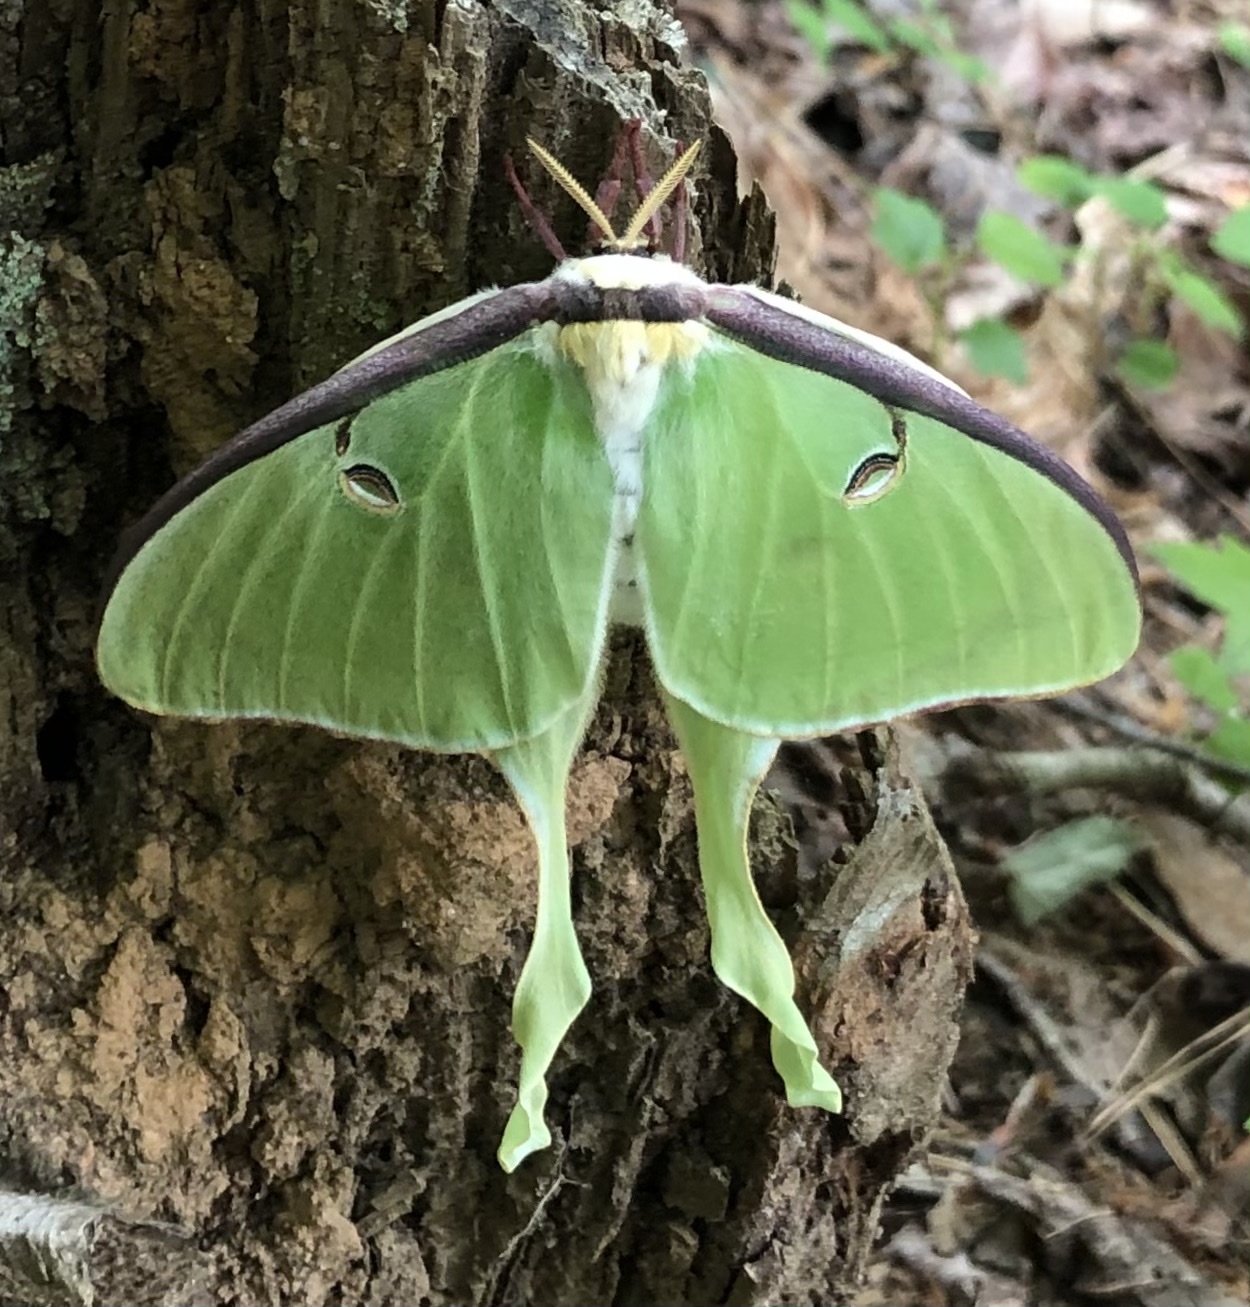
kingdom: Animalia
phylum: Arthropoda
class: Insecta
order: Lepidoptera
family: Saturniidae
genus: Actias
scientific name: Actias luna
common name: Luna moth
